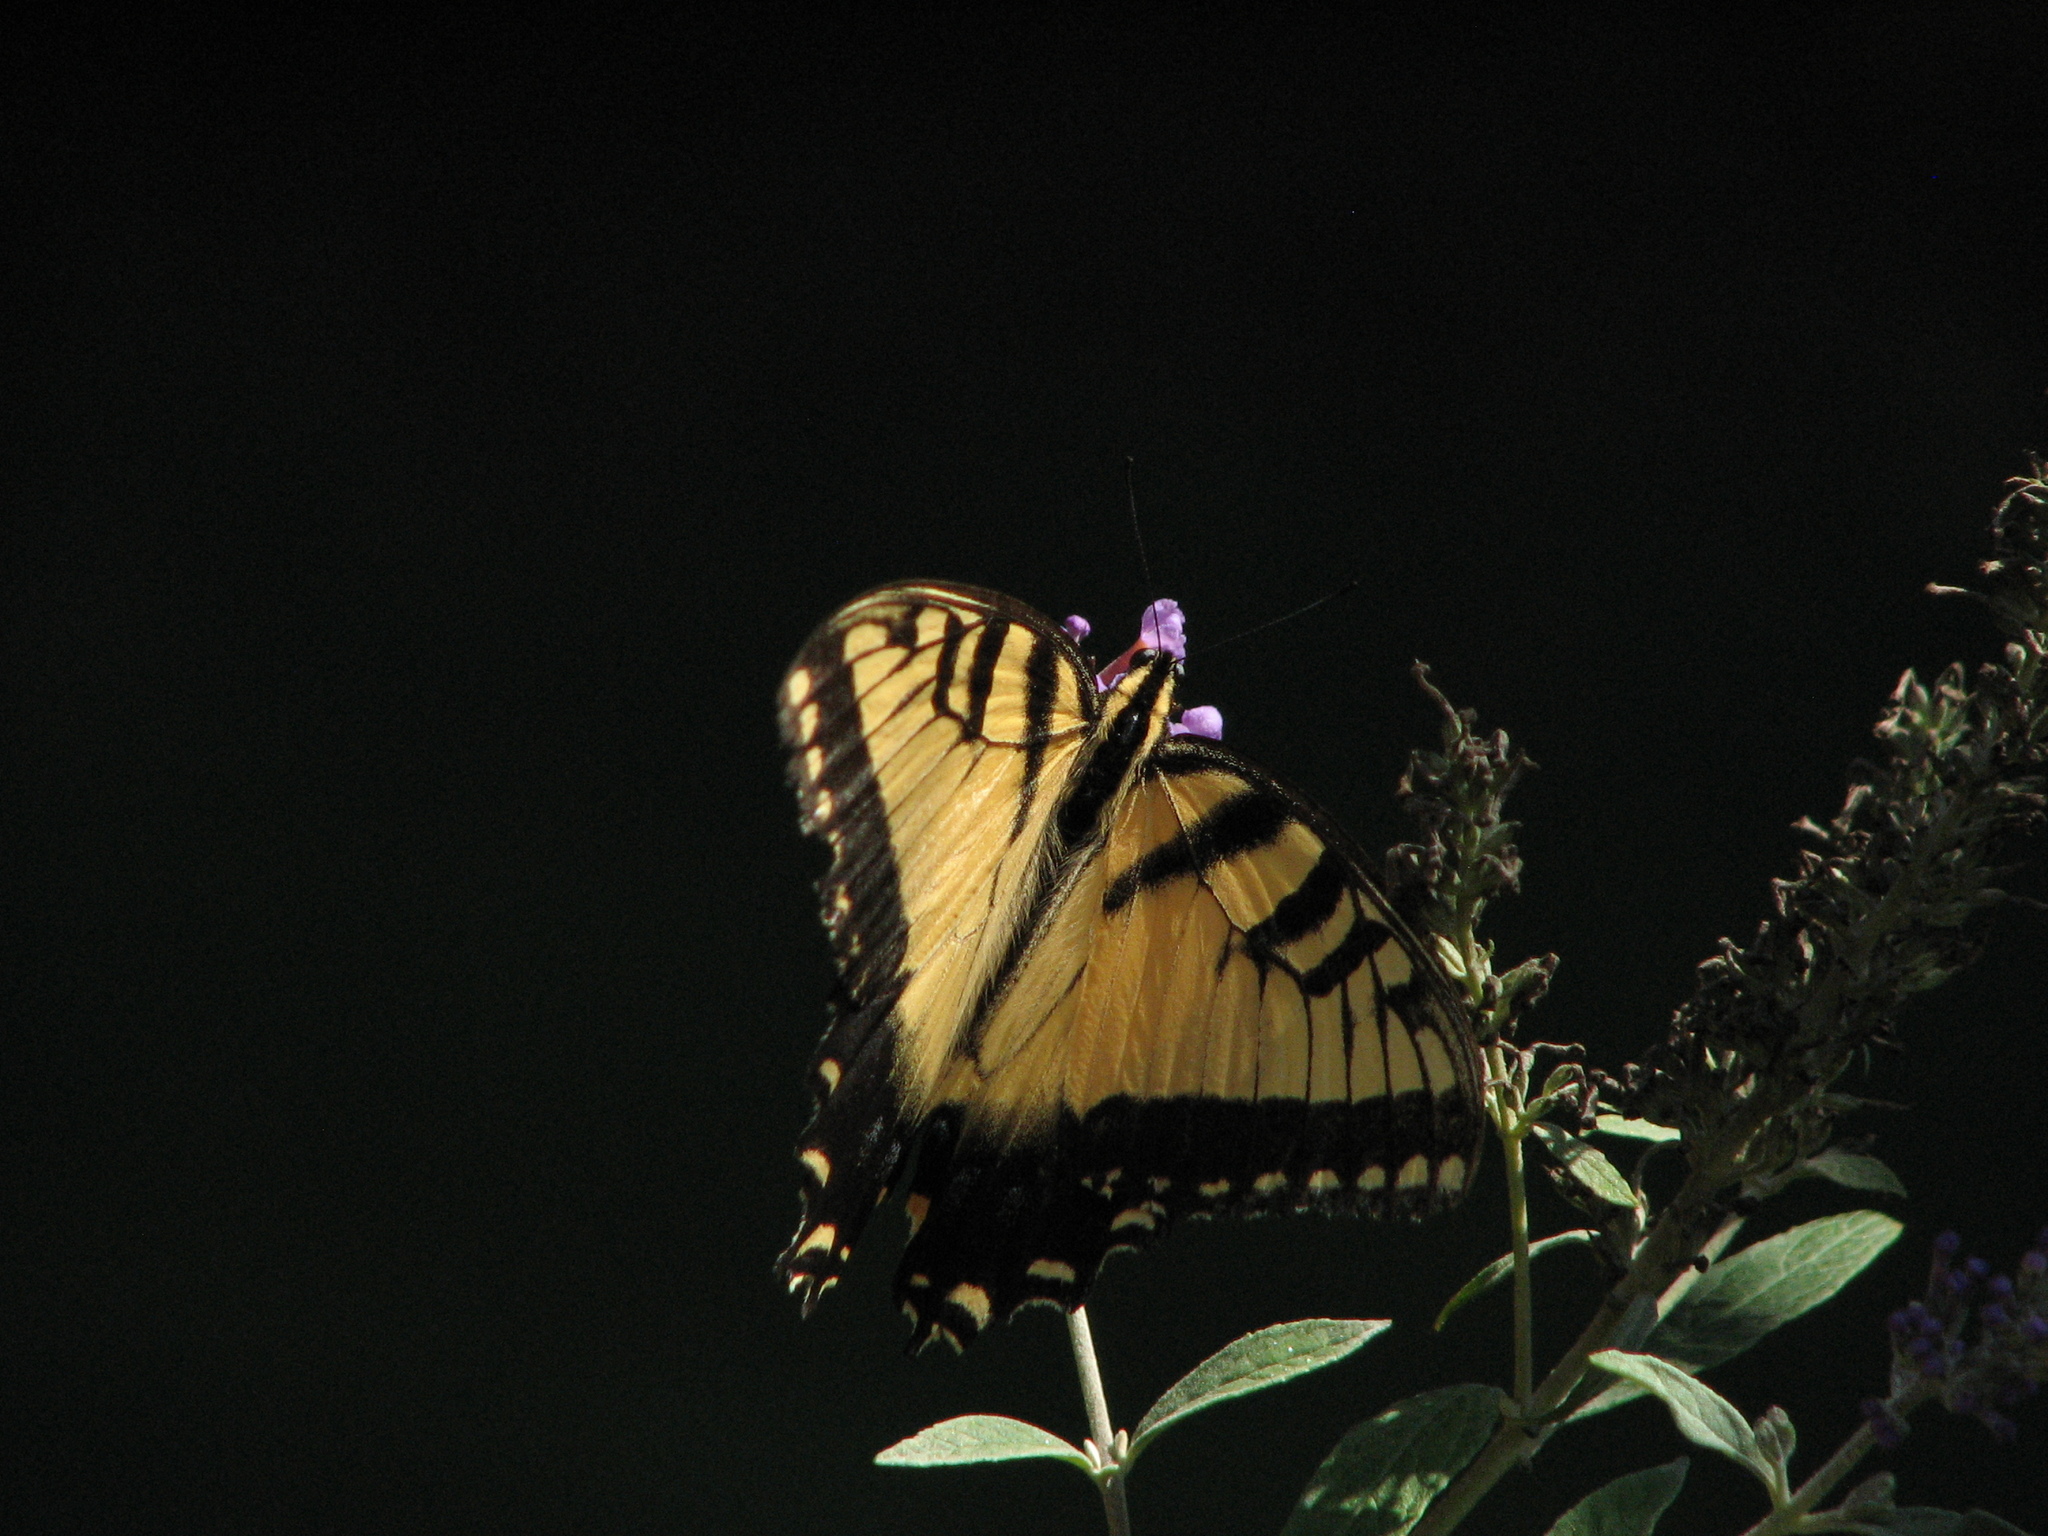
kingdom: Animalia
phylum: Arthropoda
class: Insecta
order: Lepidoptera
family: Papilionidae
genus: Papilio
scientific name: Papilio glaucus
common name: Tiger swallowtail
